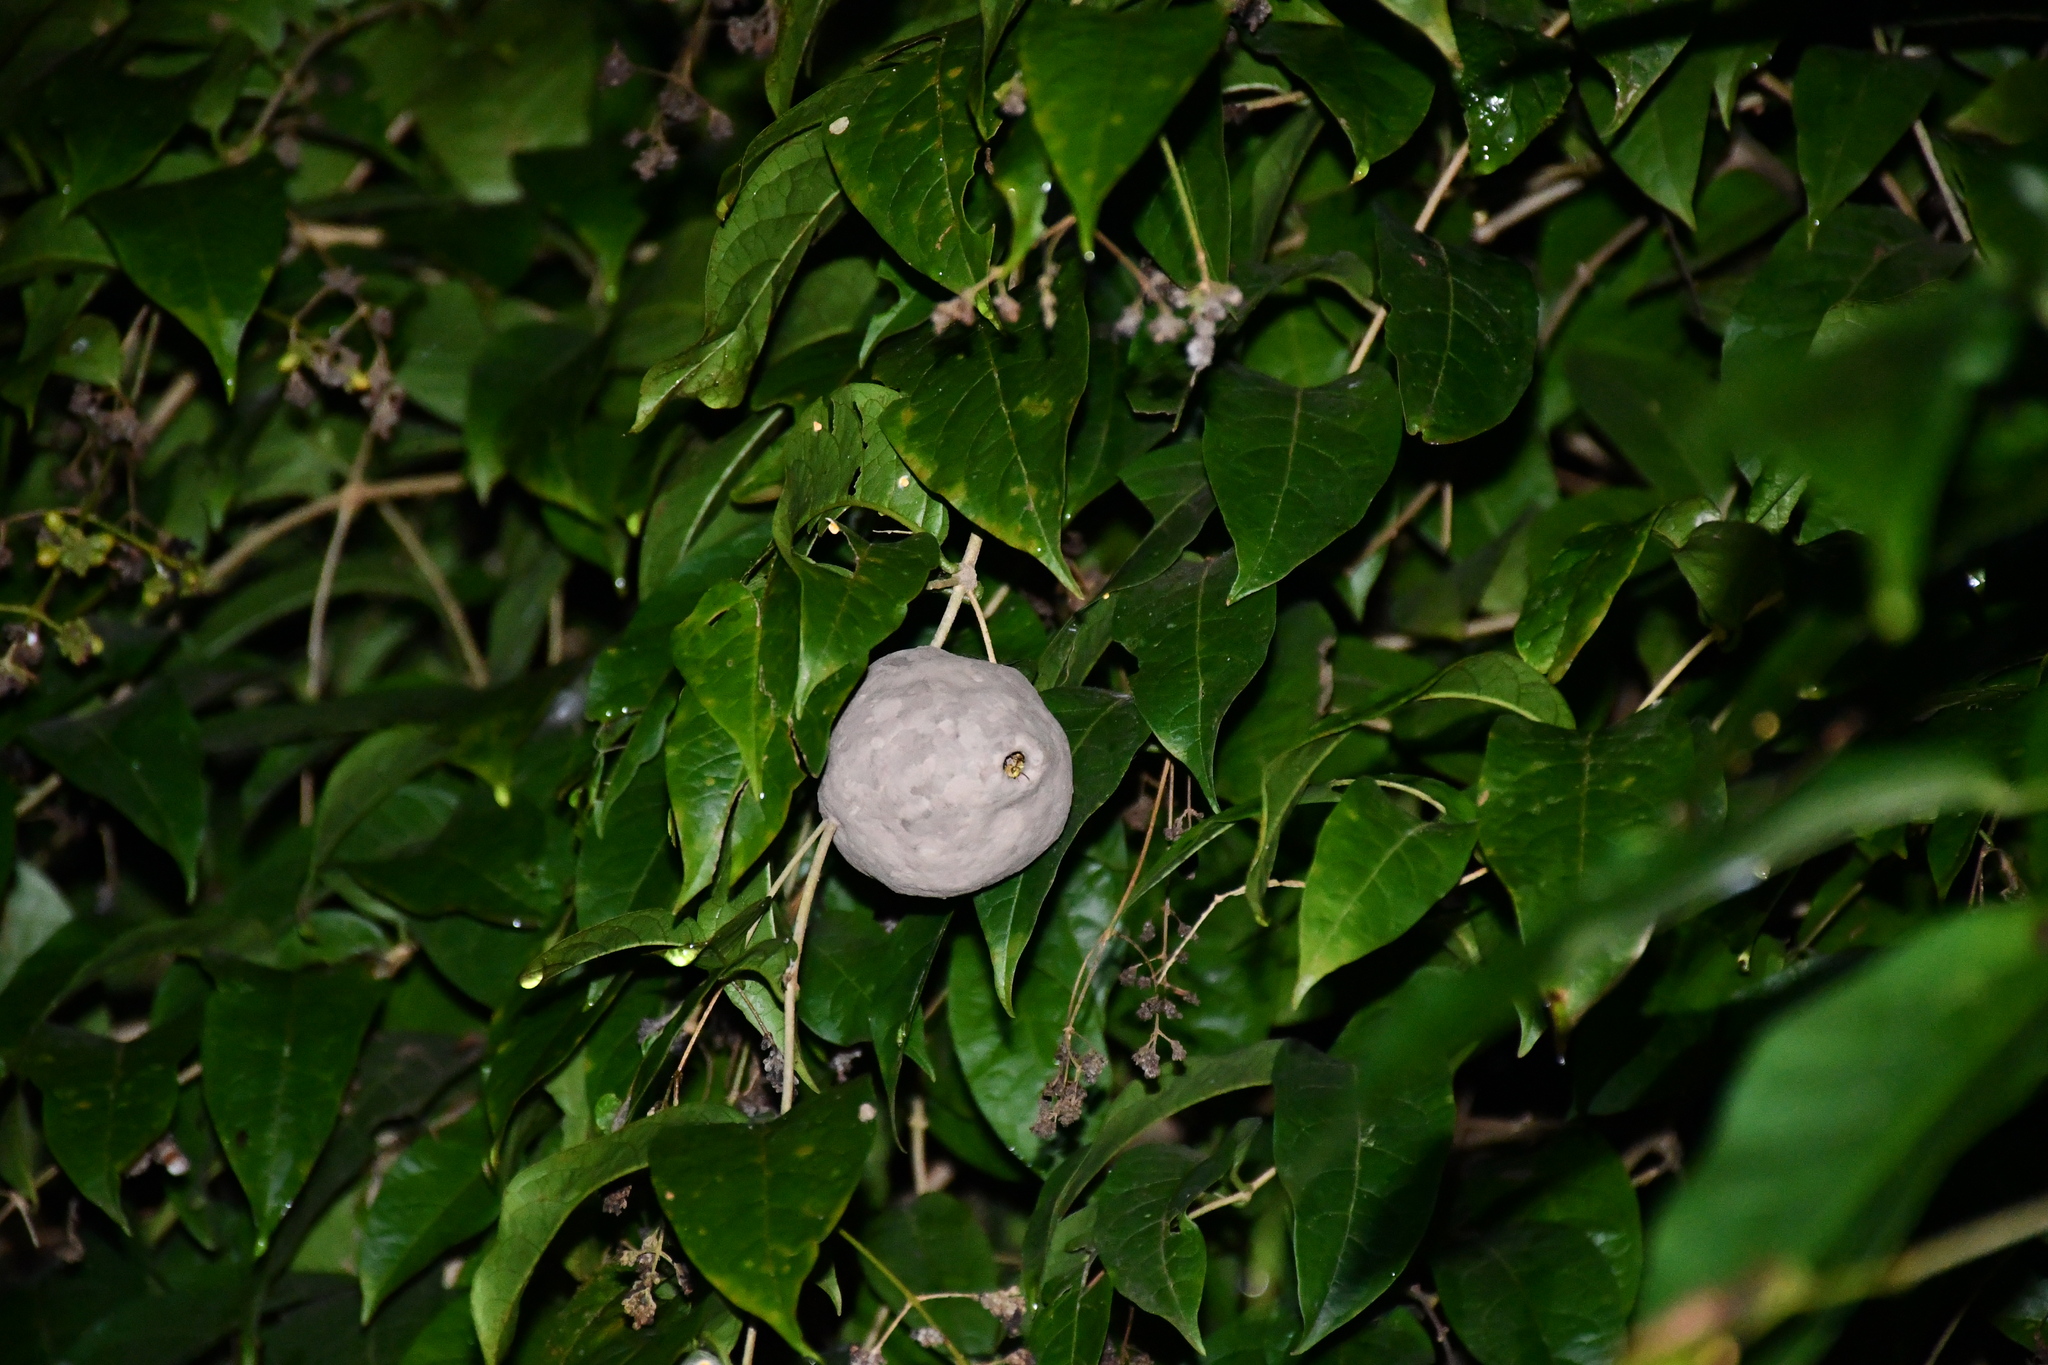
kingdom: Animalia
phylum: Arthropoda
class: Insecta
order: Hymenoptera
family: Eumenidae
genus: Polybia
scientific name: Polybia emaciata
